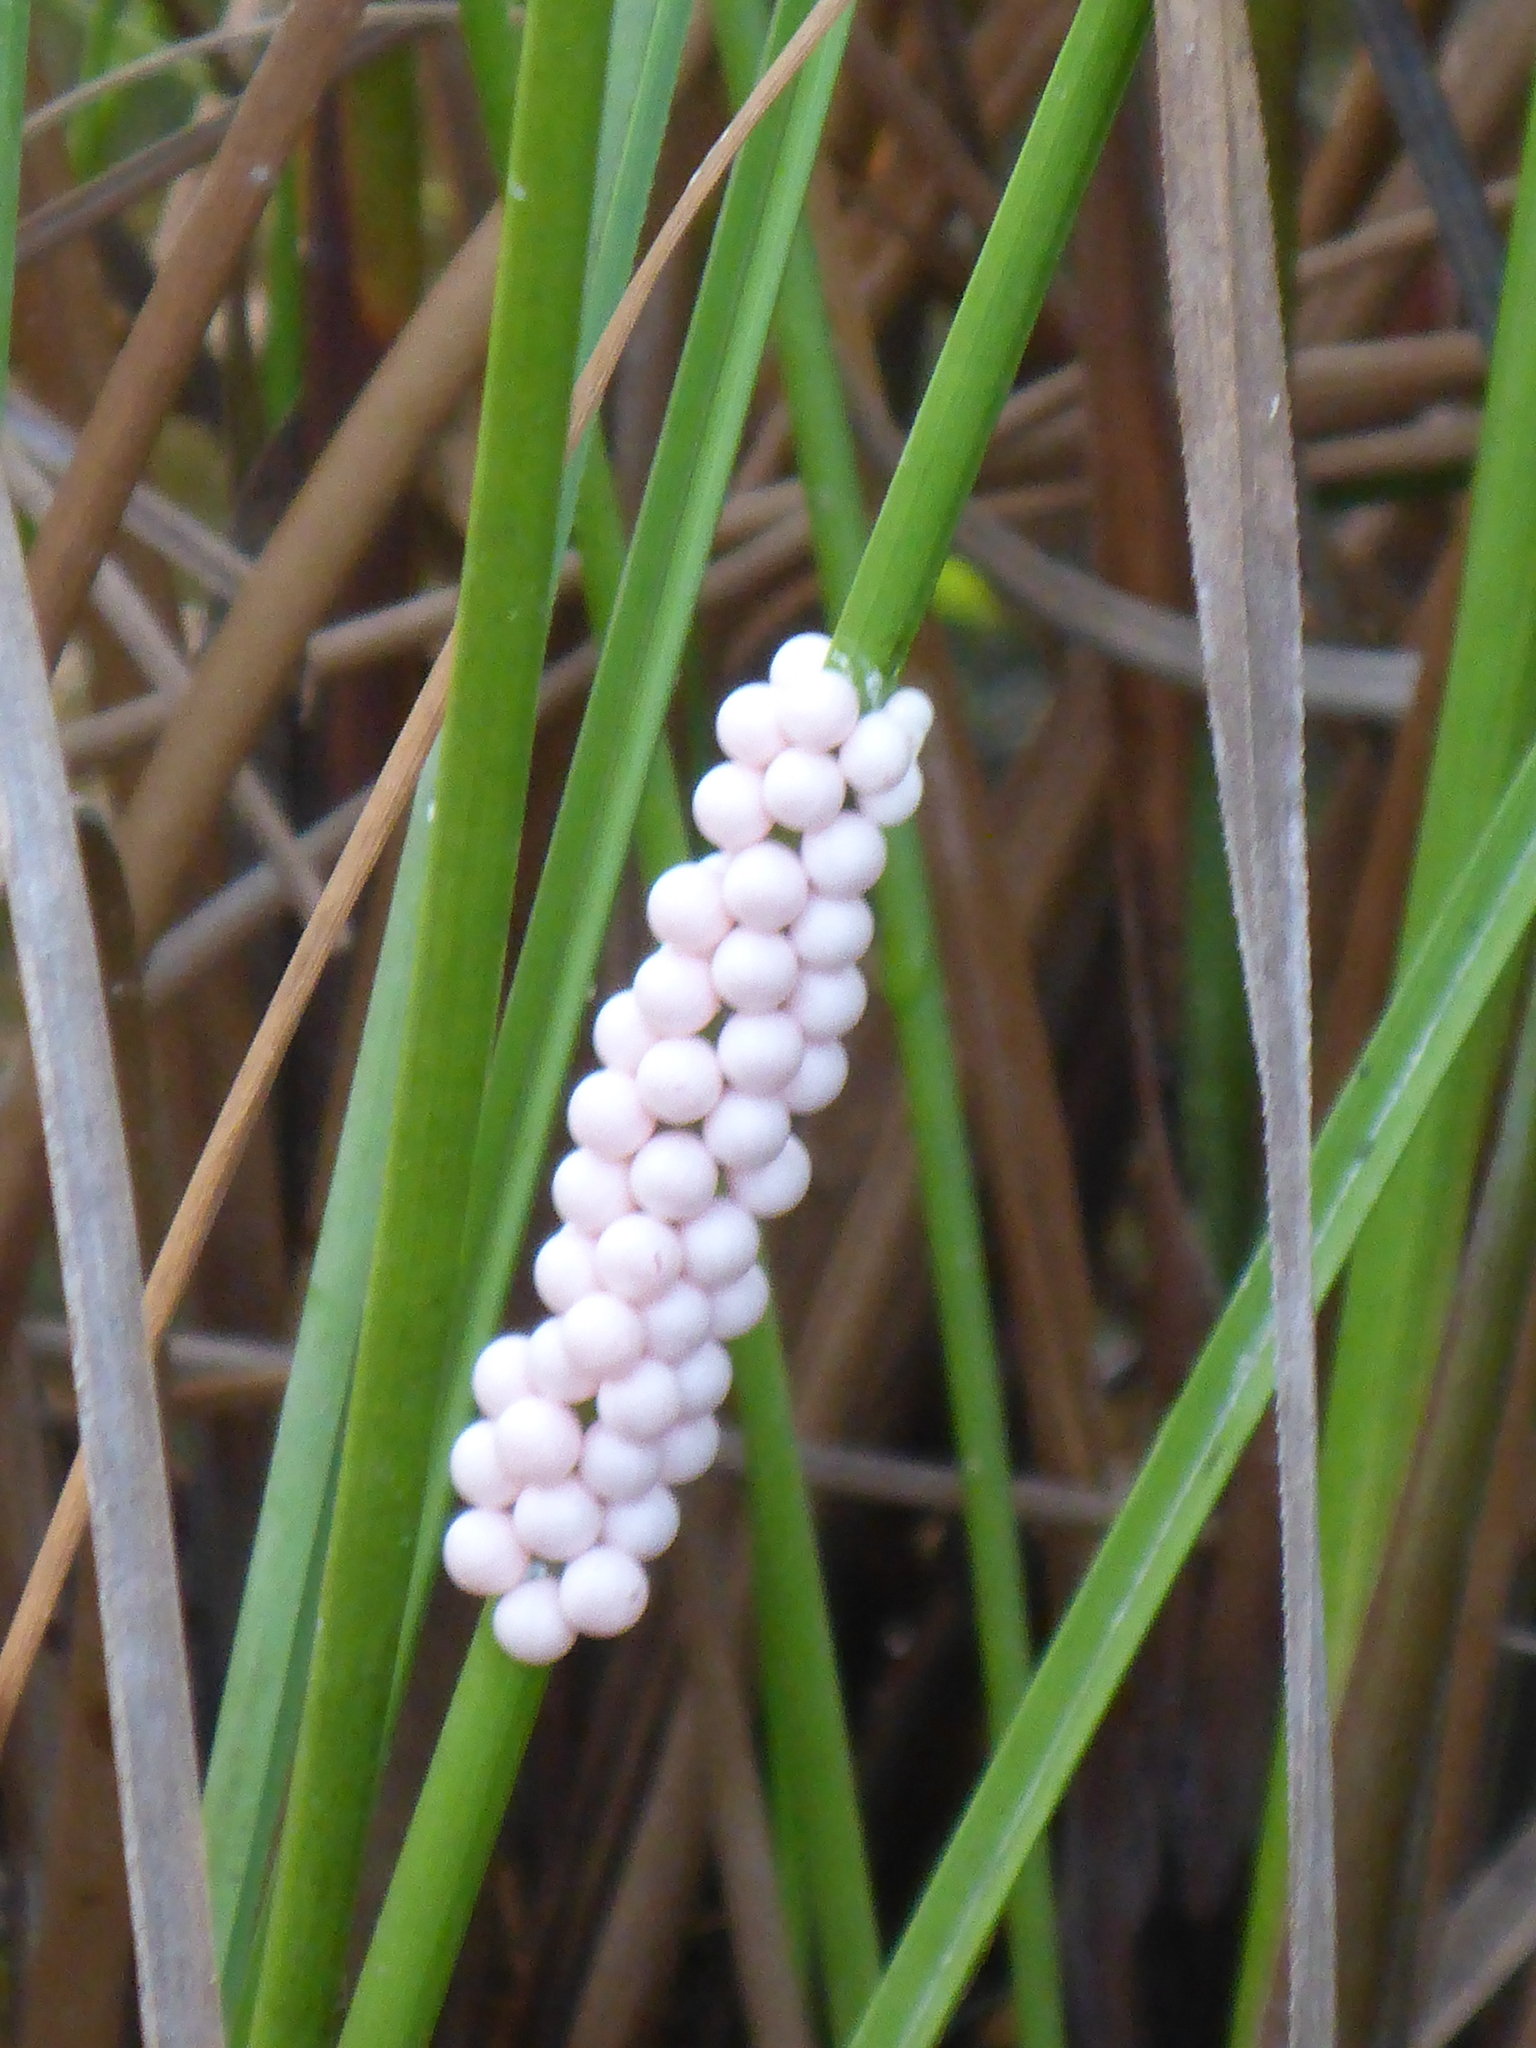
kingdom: Animalia
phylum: Mollusca
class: Gastropoda
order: Architaenioglossa
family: Ampullariidae
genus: Pomacea
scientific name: Pomacea paludosa
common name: Florida applesnail
